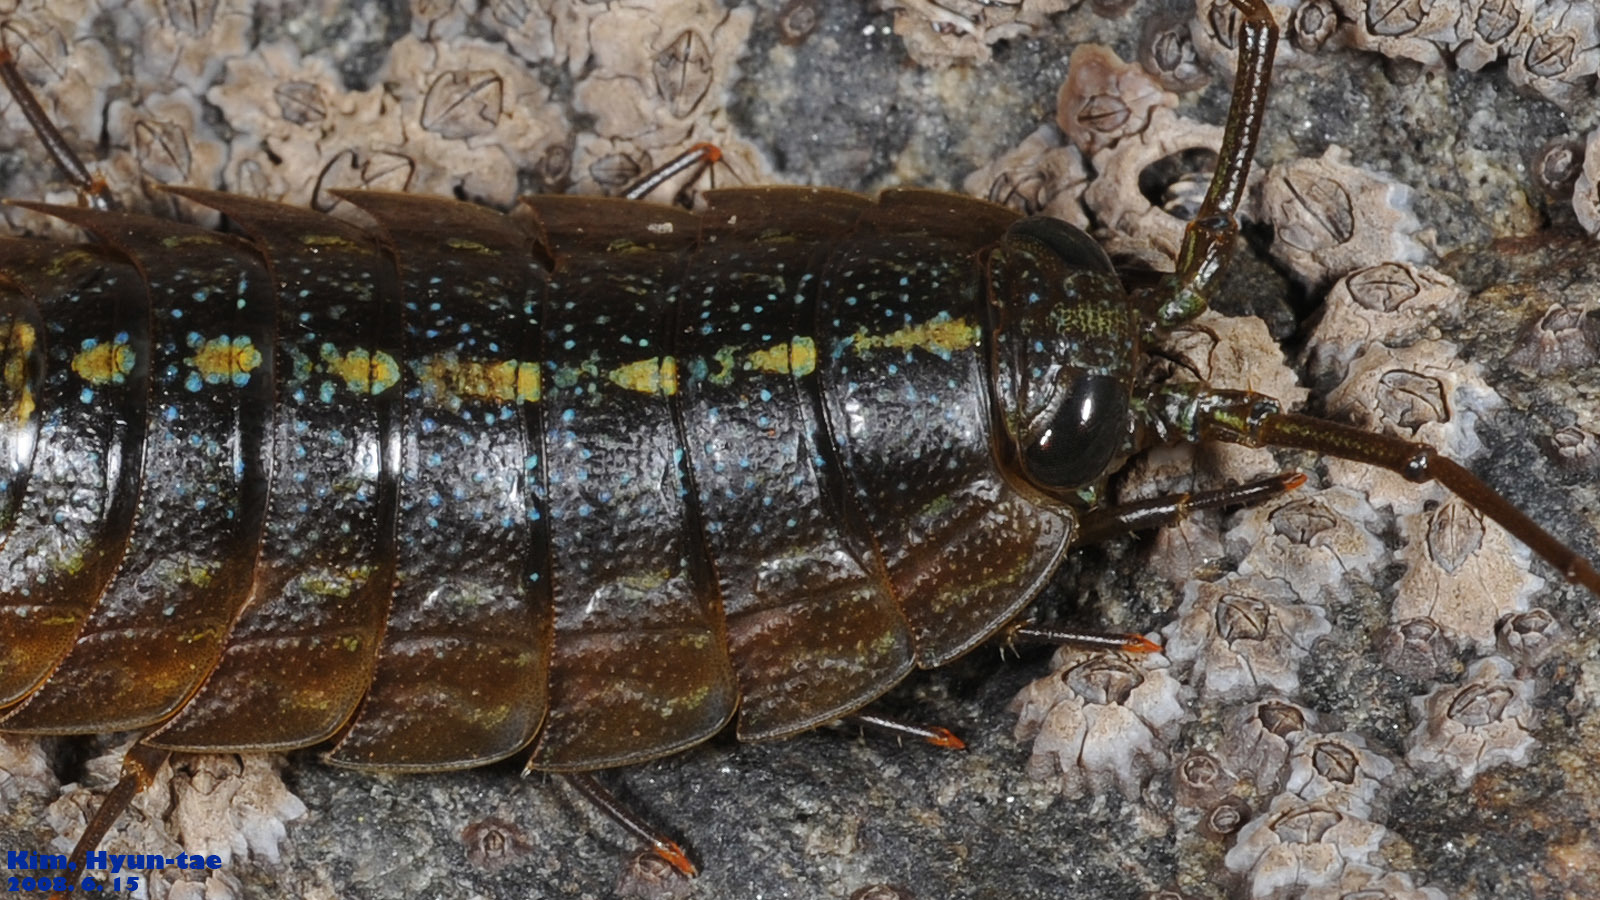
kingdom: Animalia
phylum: Arthropoda
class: Malacostraca
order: Isopoda
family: Ligiidae
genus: Ligia
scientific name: Ligia exotica
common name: Wharf roach
